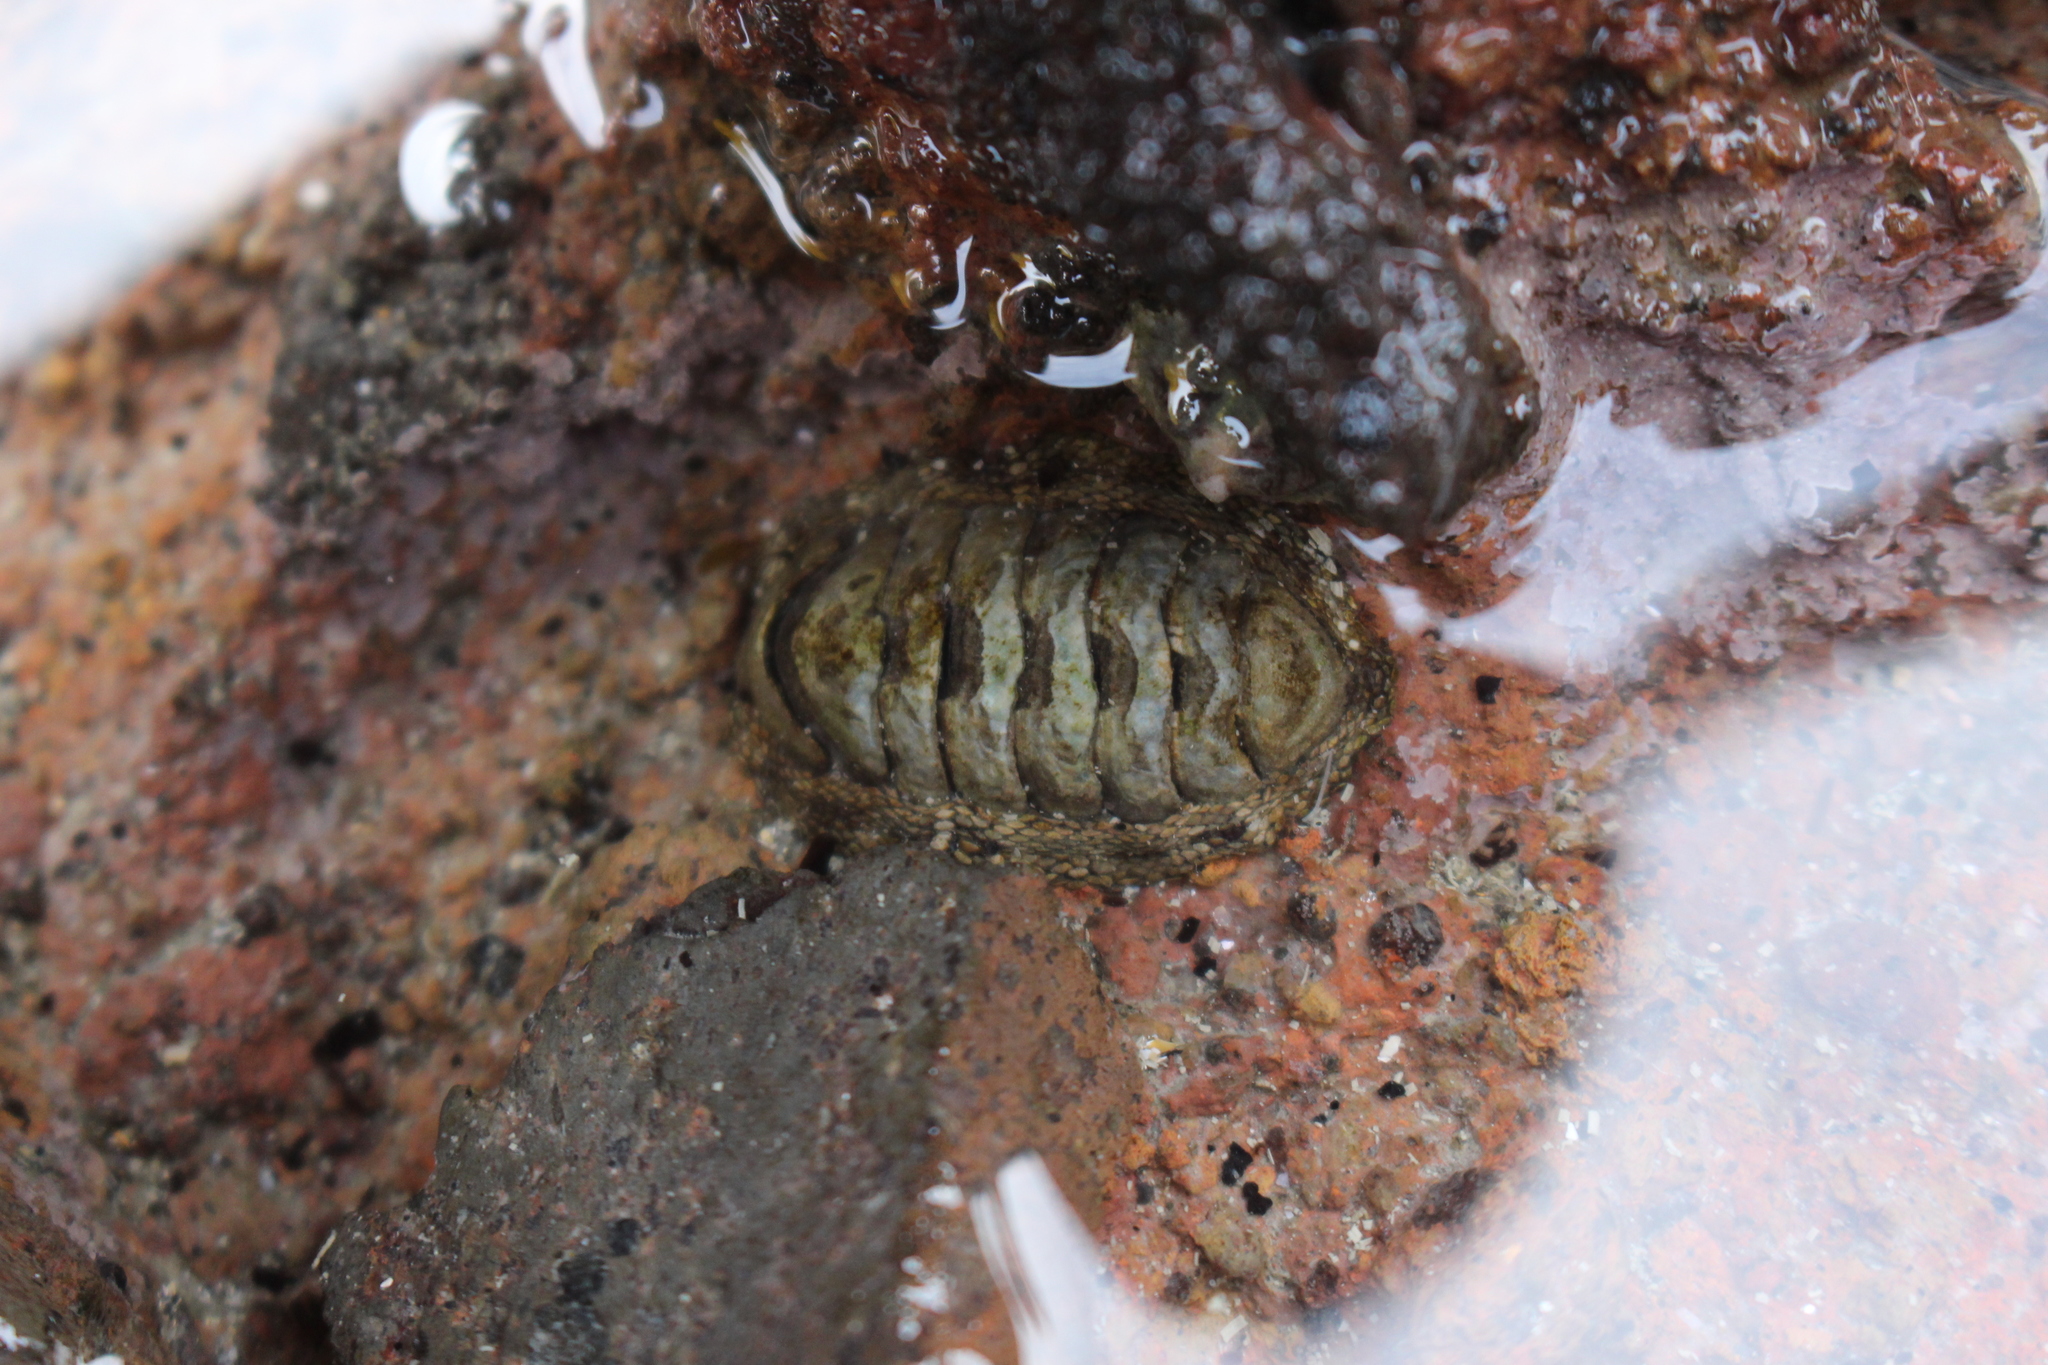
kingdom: Animalia
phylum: Mollusca
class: Polyplacophora
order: Chitonida
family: Chitonidae
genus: Sypharochiton
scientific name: Sypharochiton pelliserpentis
